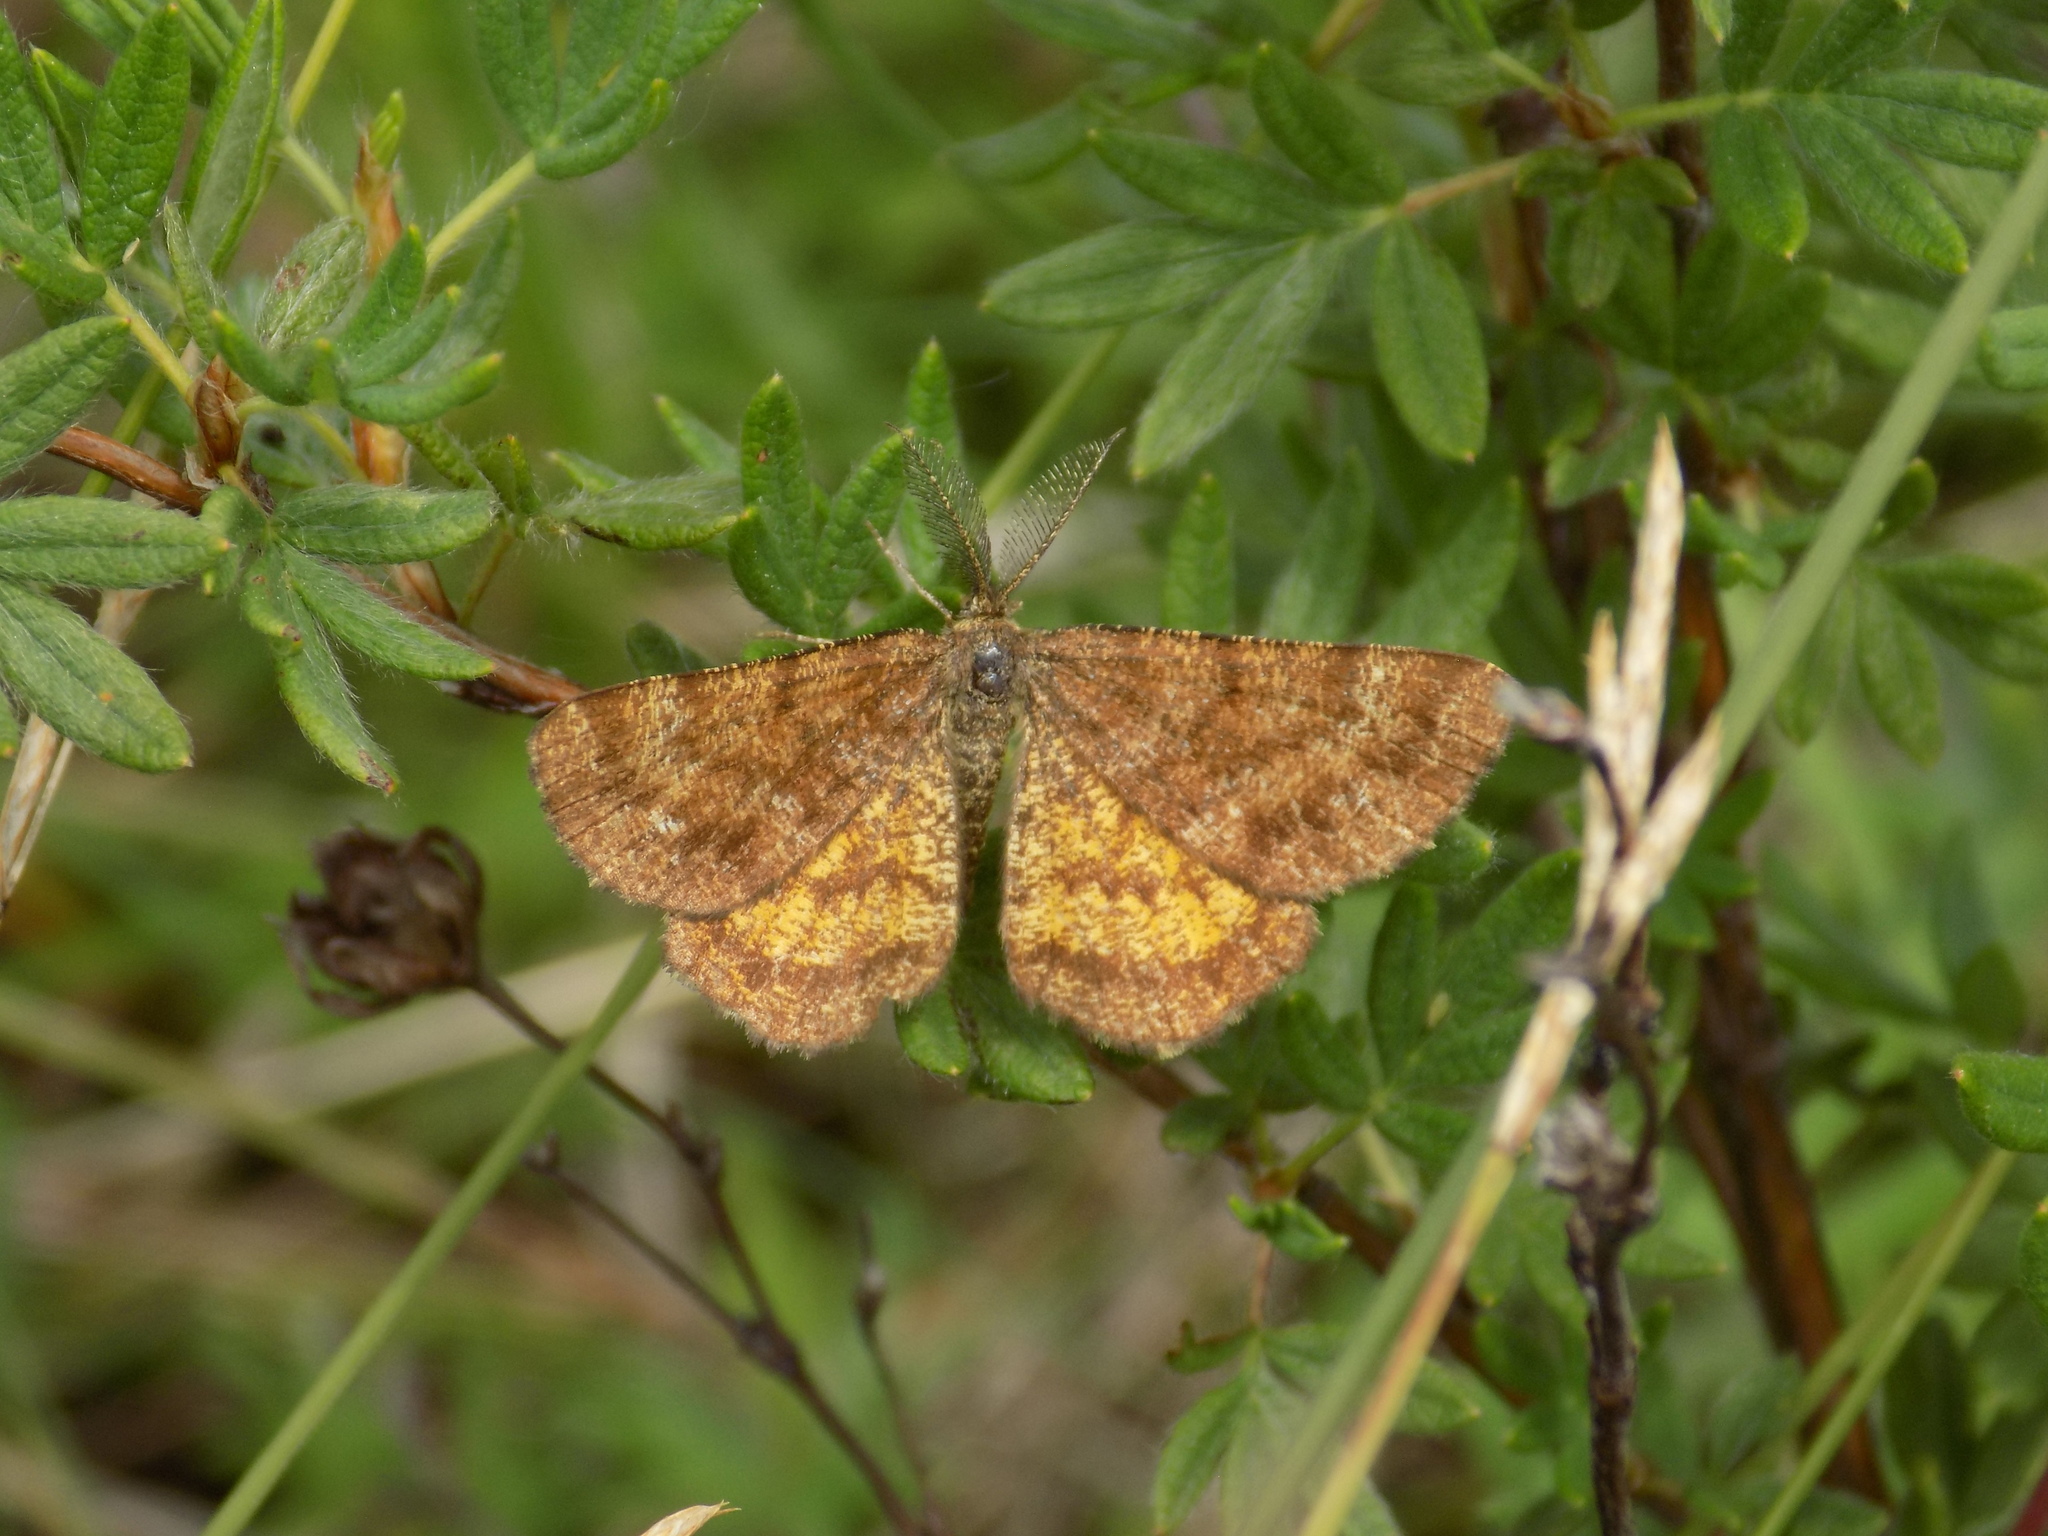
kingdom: Animalia
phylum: Arthropoda
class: Insecta
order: Lepidoptera
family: Geometridae
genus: Ematurga
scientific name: Ematurga amitaria
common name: Cranberry spanworm moth
